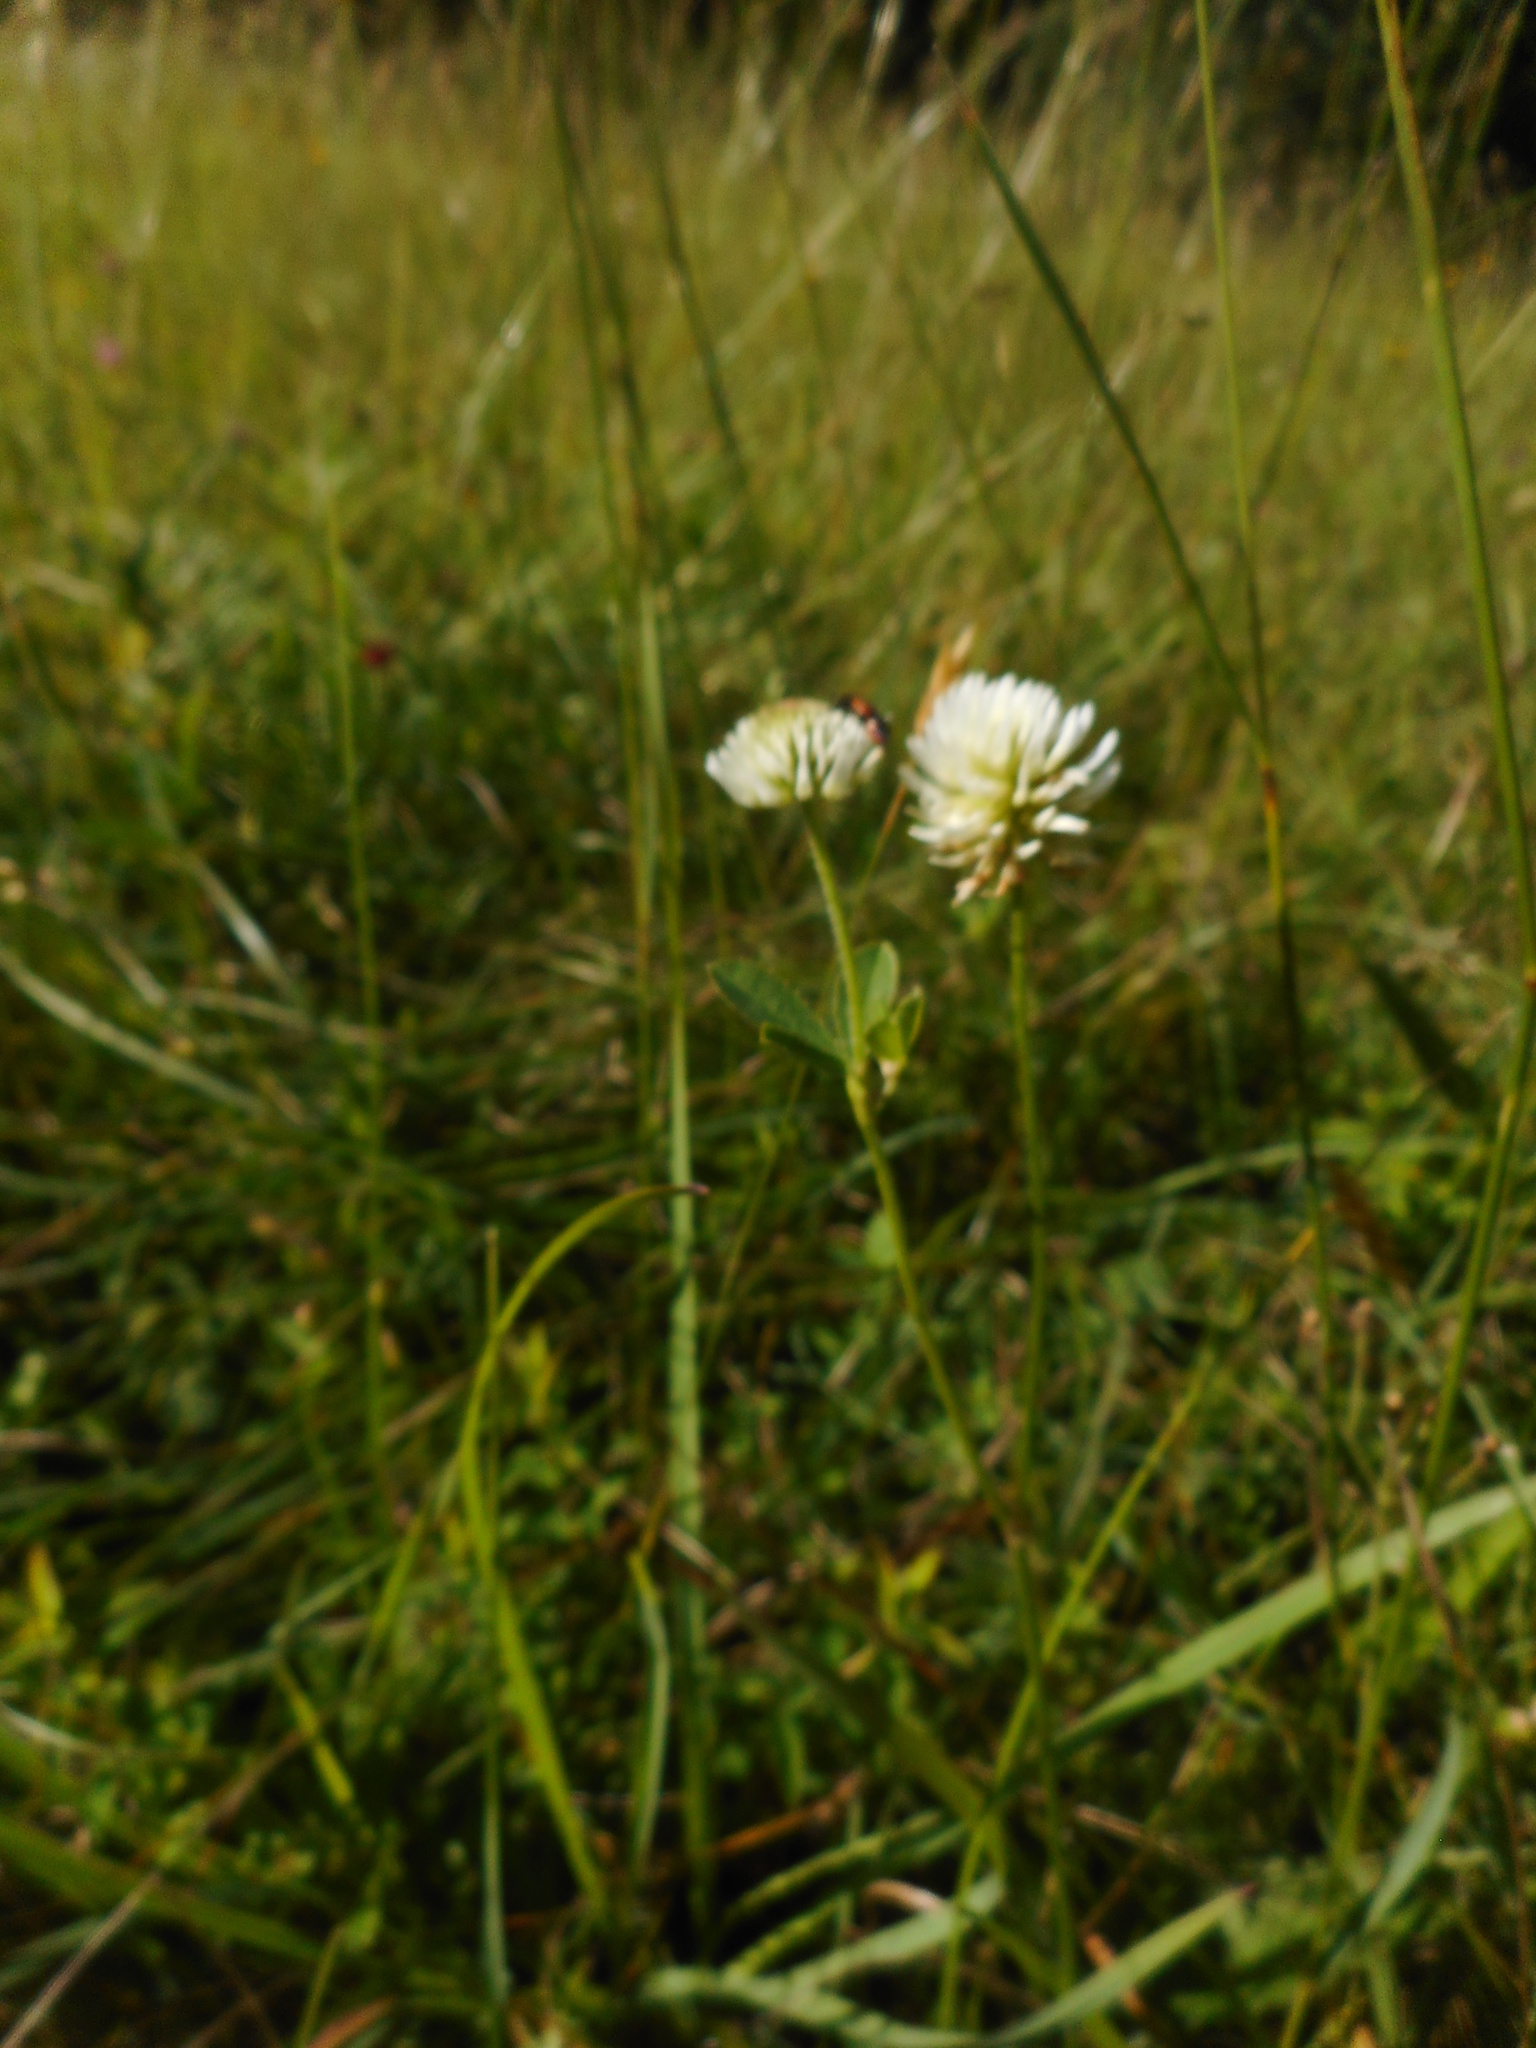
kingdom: Plantae
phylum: Tracheophyta
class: Magnoliopsida
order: Fabales
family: Fabaceae
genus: Trifolium
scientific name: Trifolium montanum
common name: Mountain clover
